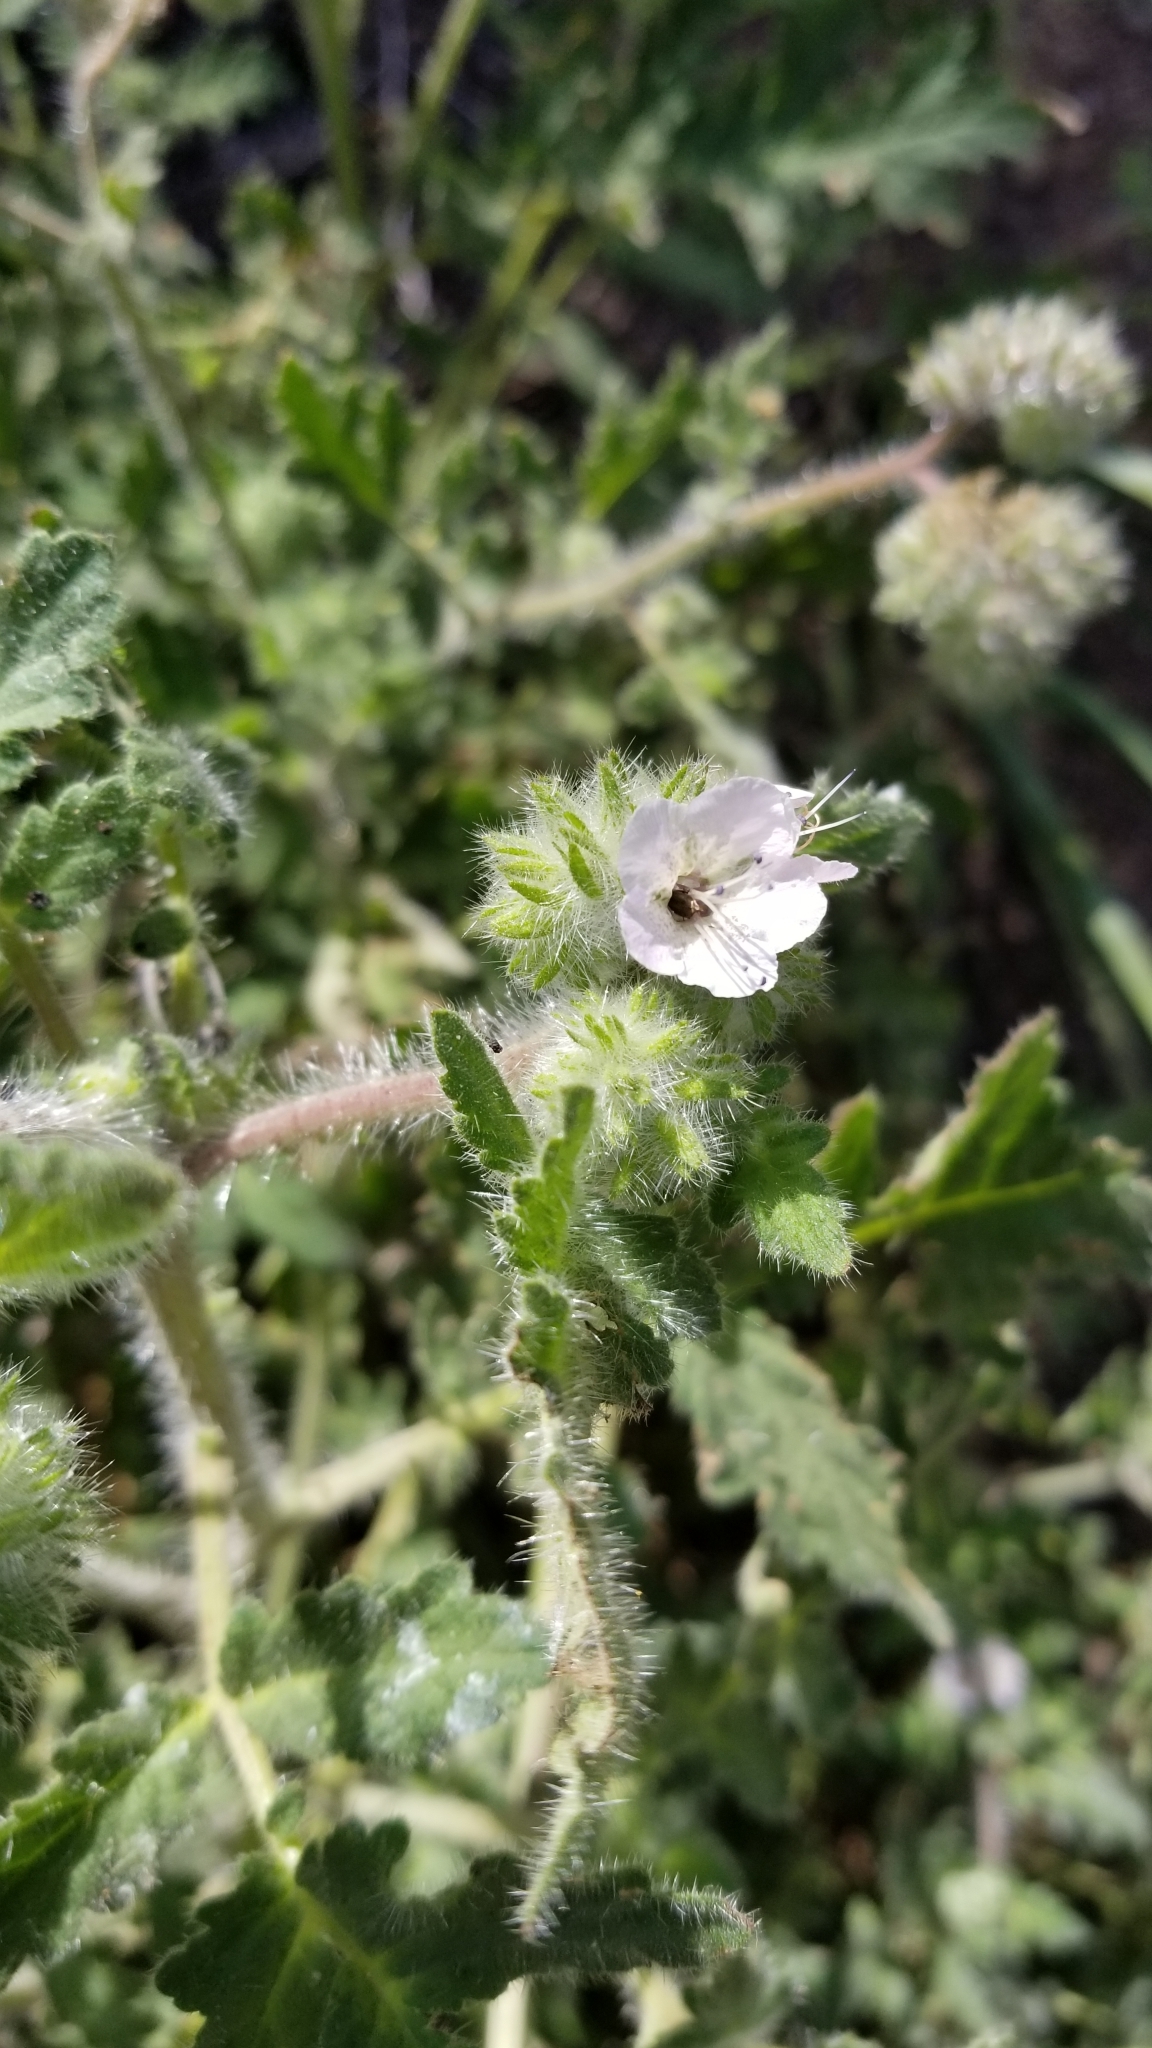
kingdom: Plantae
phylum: Tracheophyta
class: Magnoliopsida
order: Boraginales
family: Hydrophyllaceae
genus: Phacelia
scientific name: Phacelia cicutaria
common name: Caterpillar phacelia
